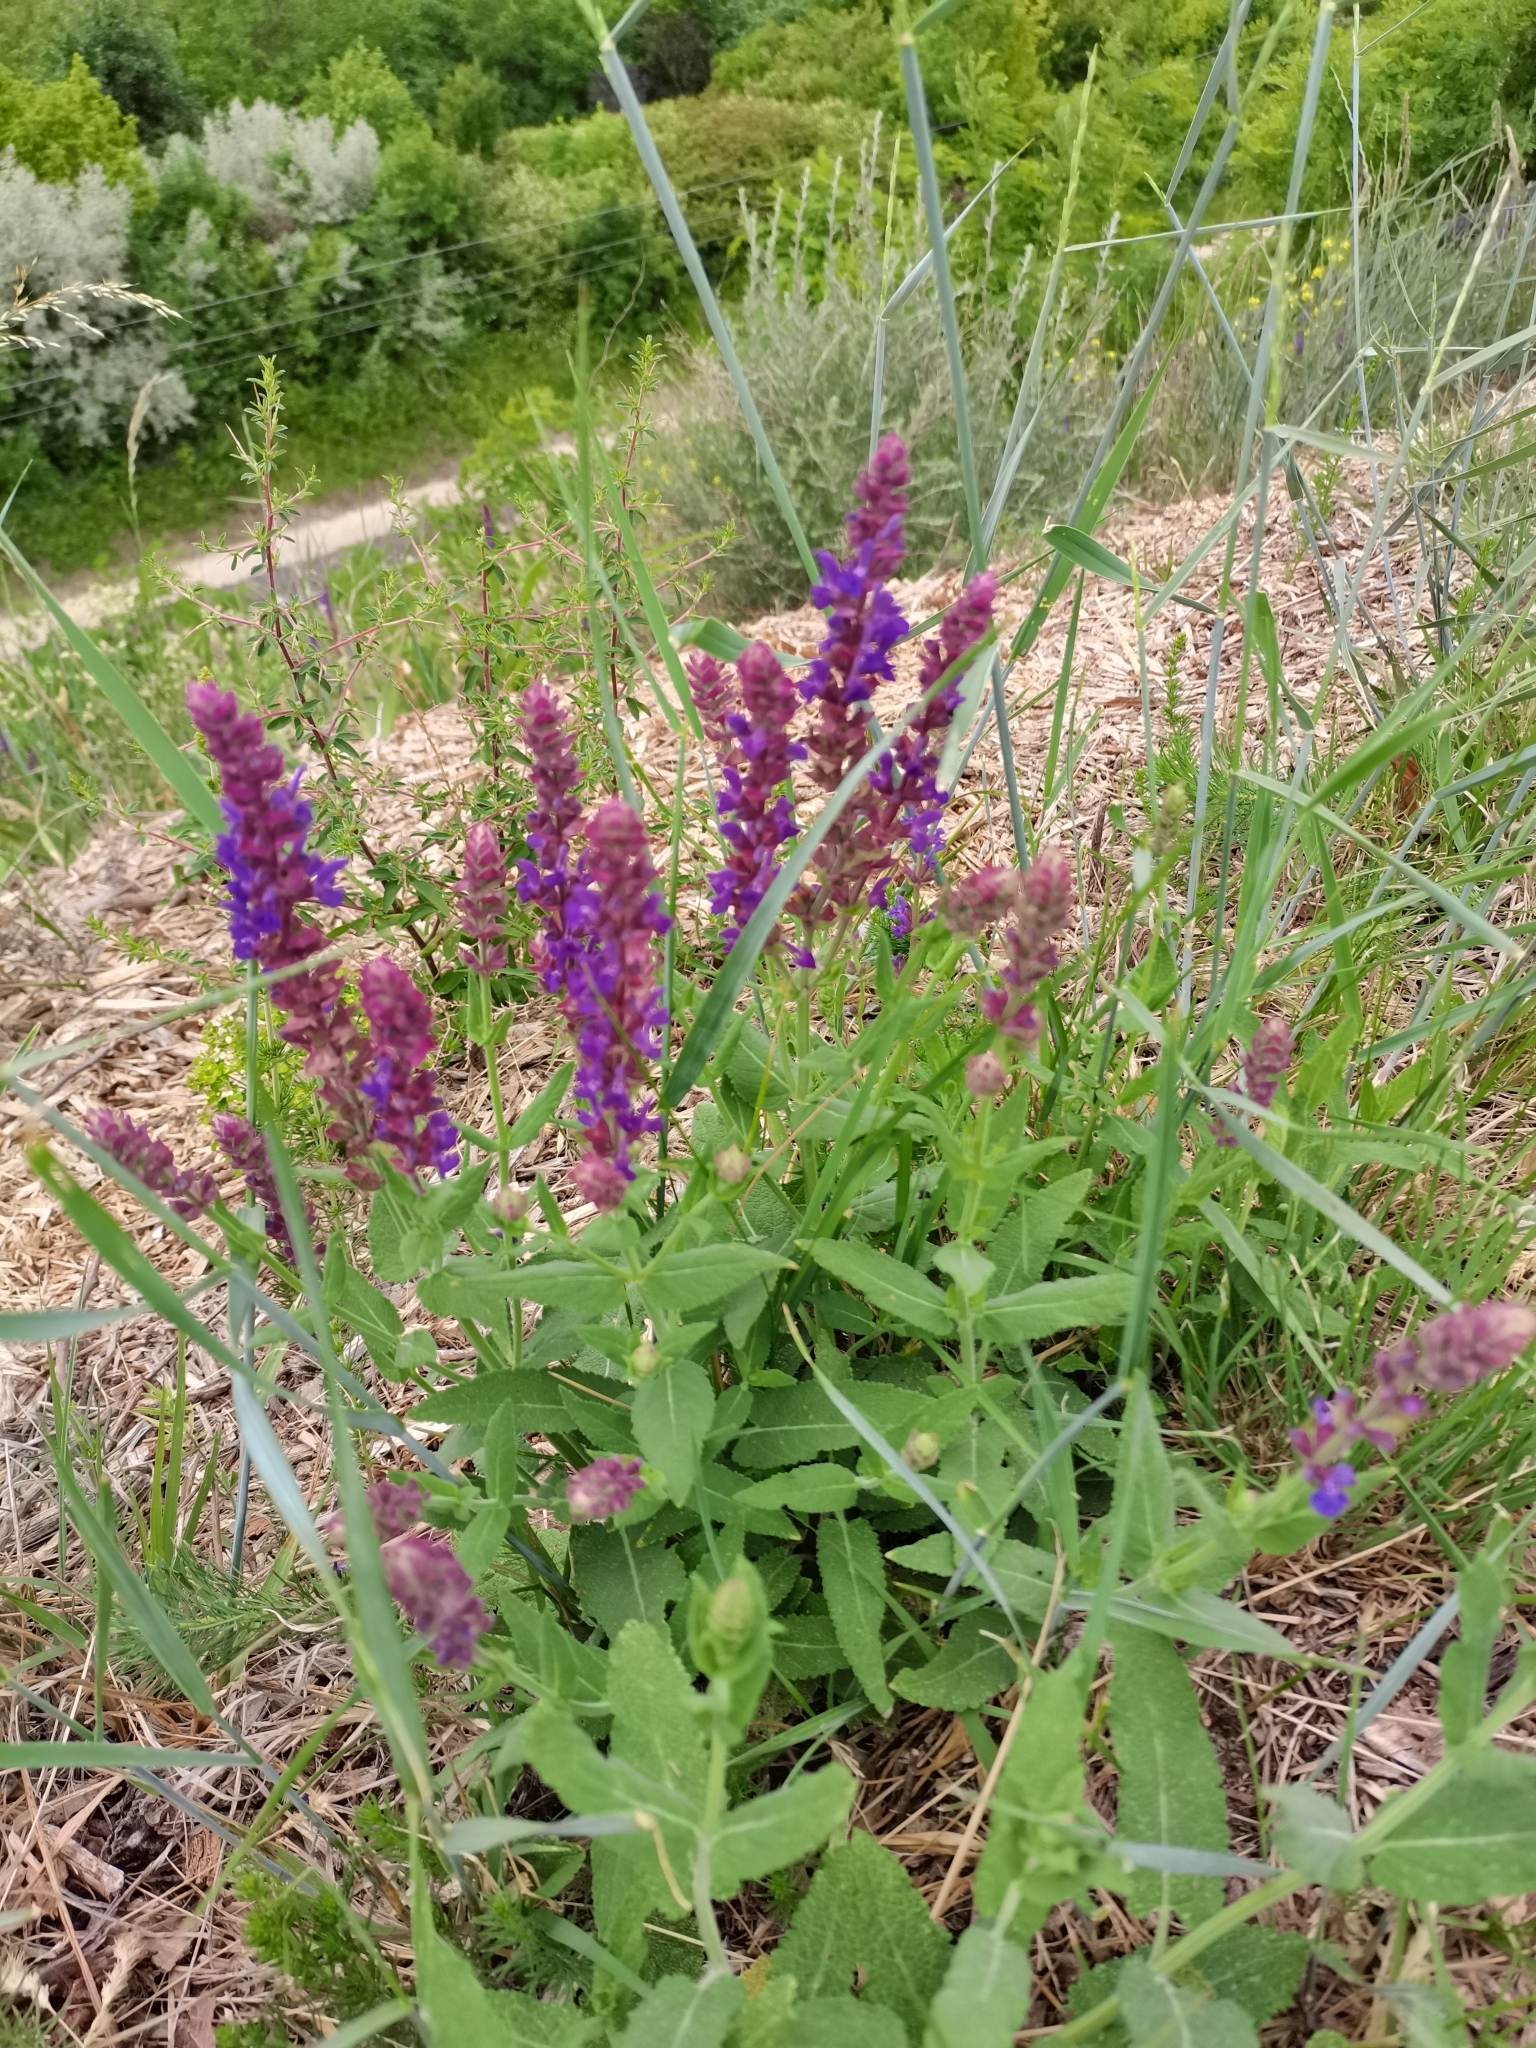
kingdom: Plantae
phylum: Tracheophyta
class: Magnoliopsida
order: Lamiales
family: Lamiaceae
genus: Salvia
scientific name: Salvia nemorosa
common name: Balkan clary
